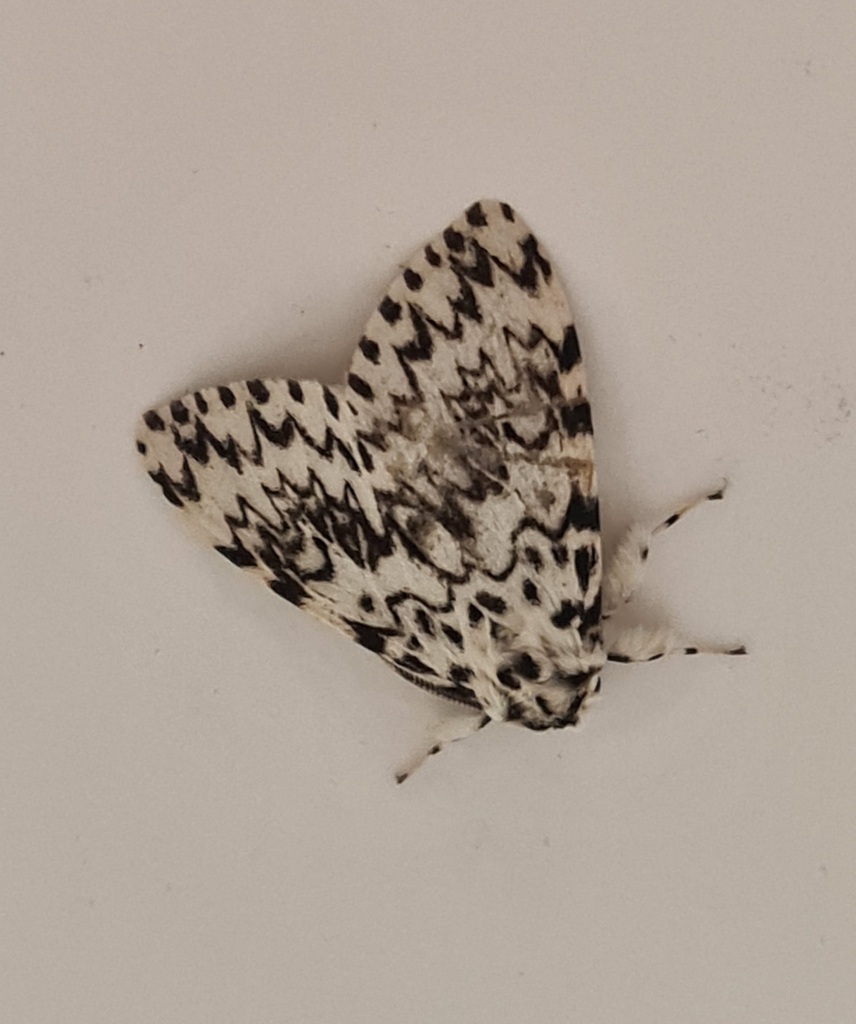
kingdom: Animalia
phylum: Arthropoda
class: Insecta
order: Lepidoptera
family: Erebidae
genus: Lymantria
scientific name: Lymantria monacha
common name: Black arches
